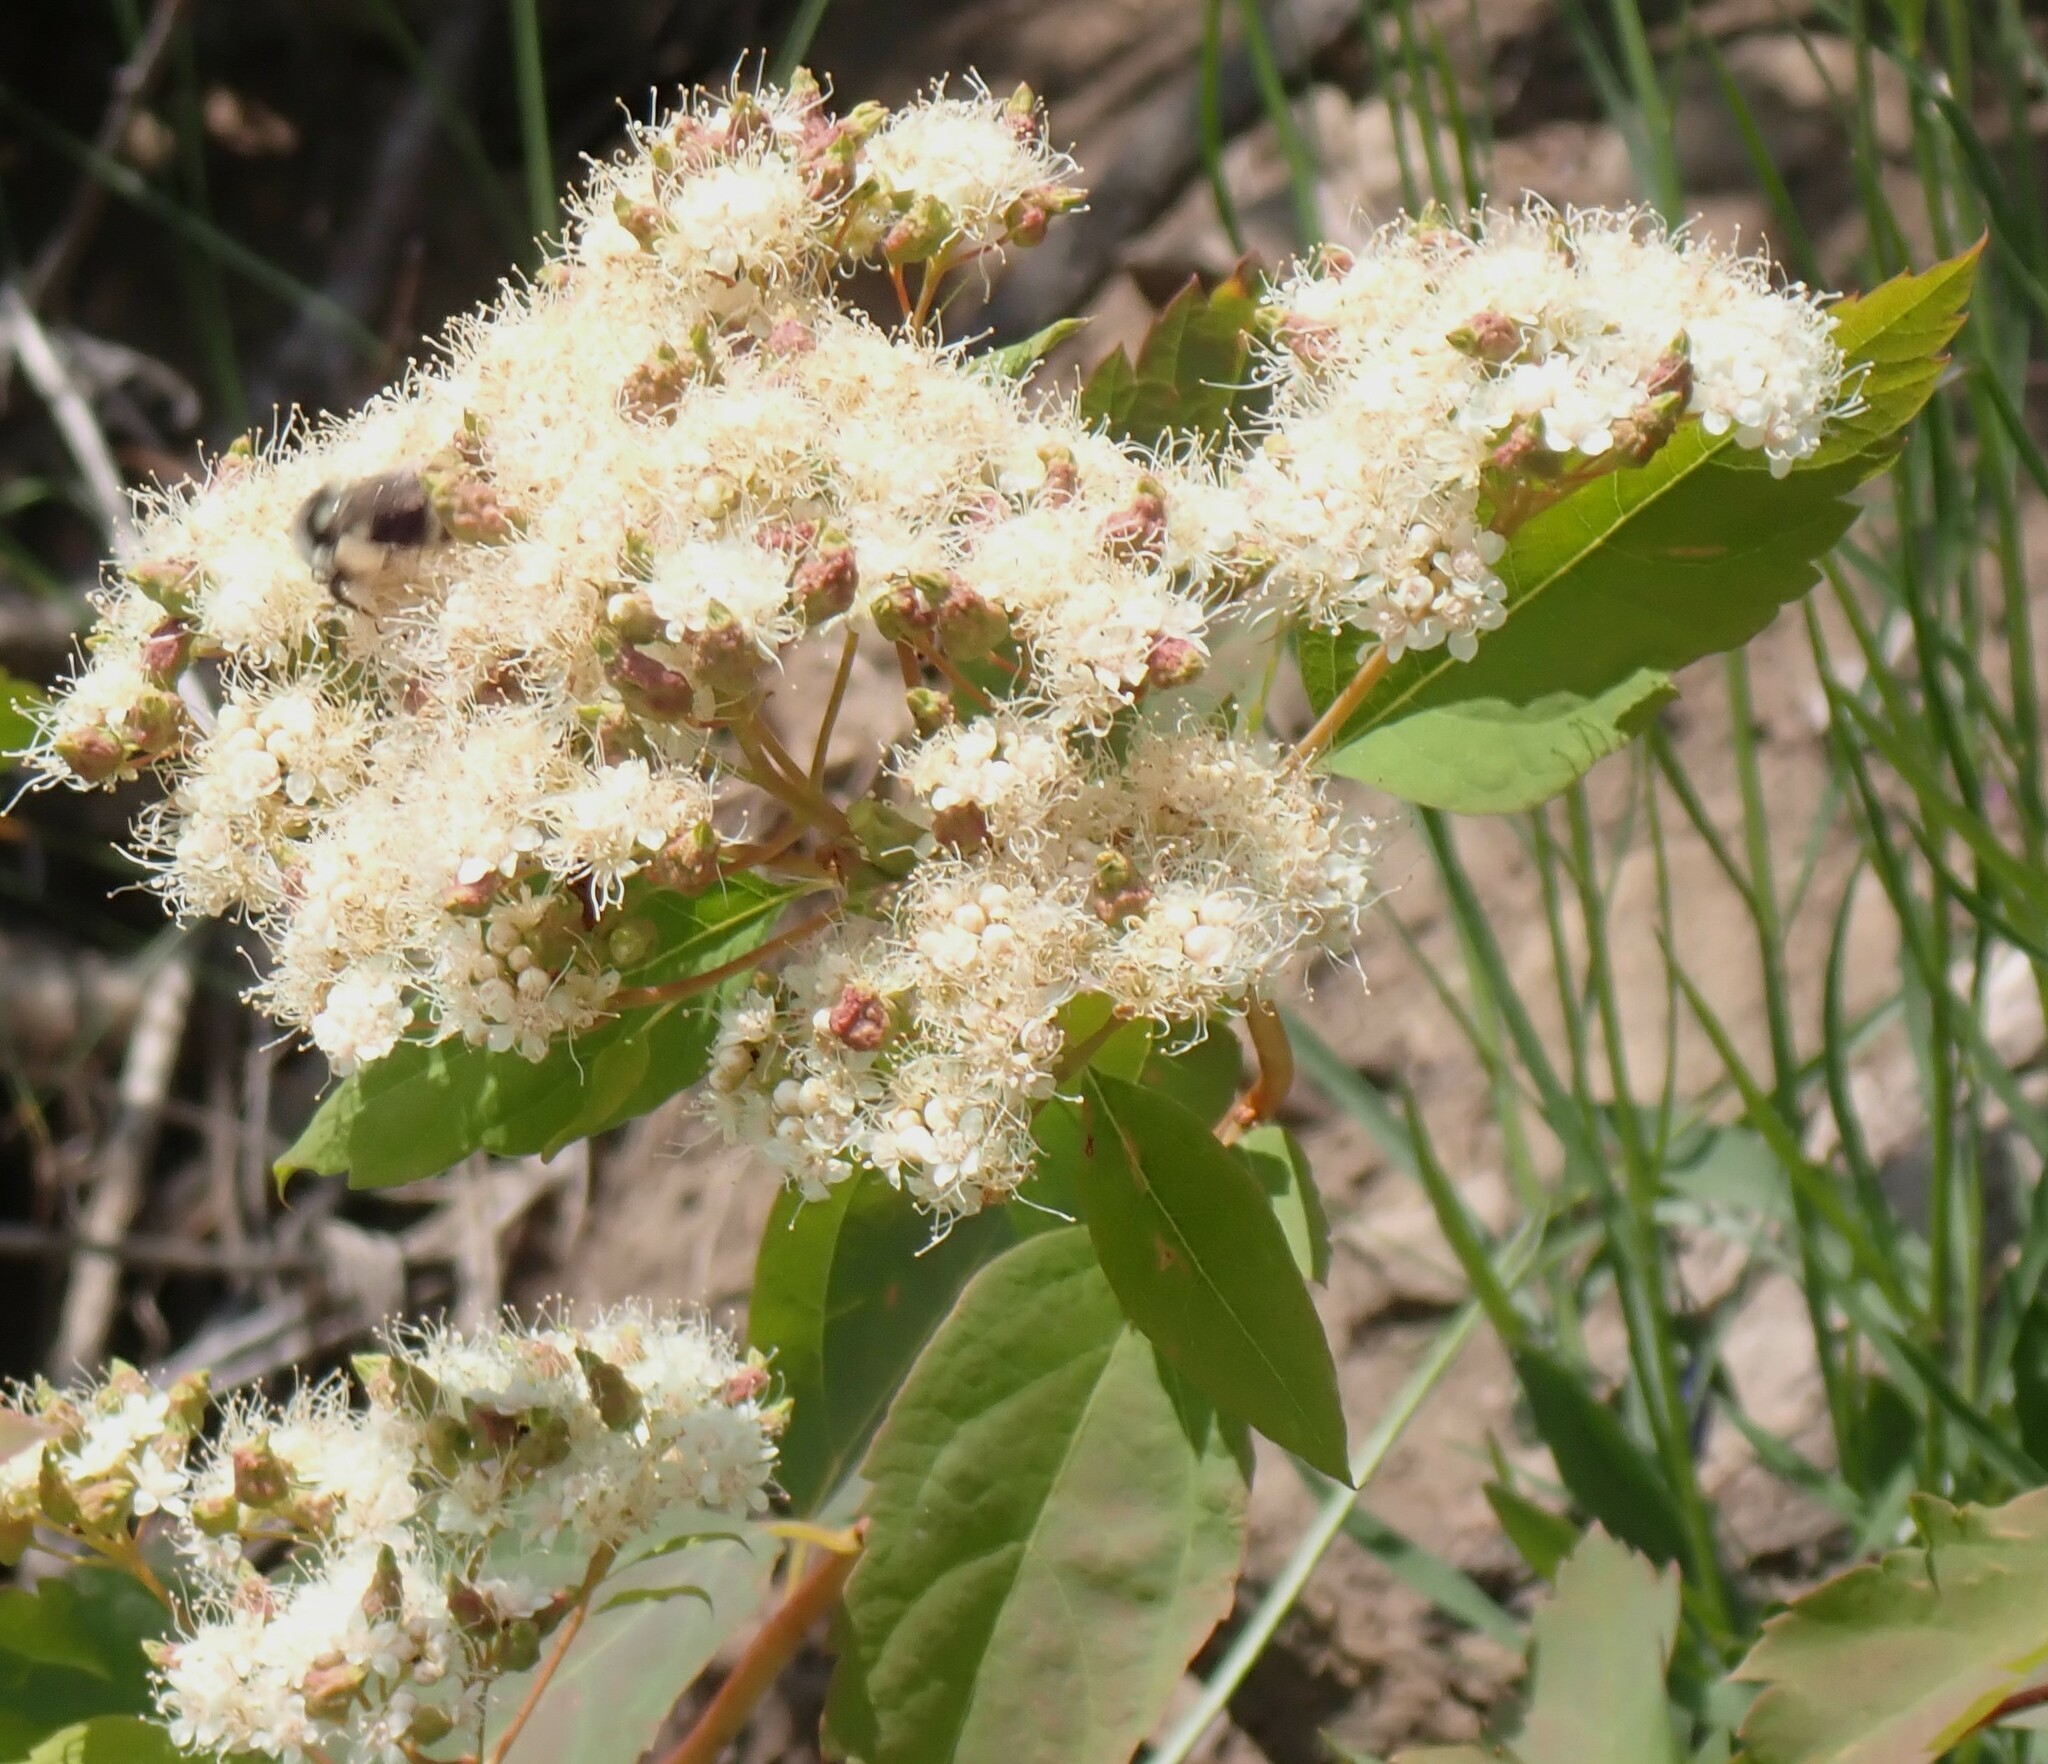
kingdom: Plantae
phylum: Tracheophyta
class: Magnoliopsida
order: Rosales
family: Rosaceae
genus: Spiraea
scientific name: Spiraea lucida
